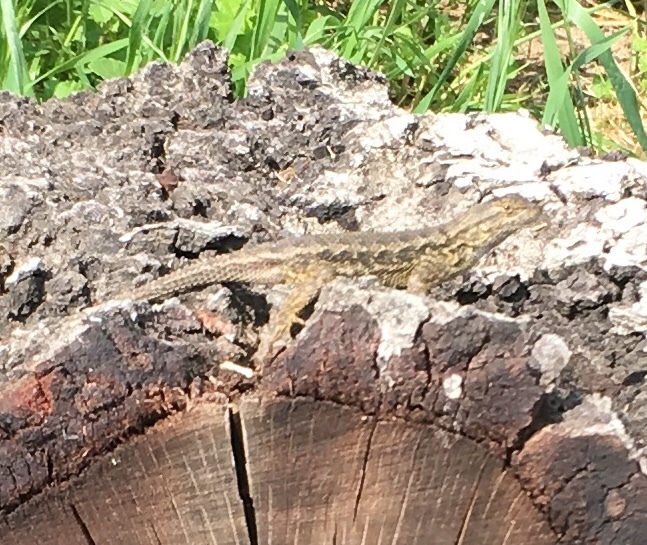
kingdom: Animalia
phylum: Chordata
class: Squamata
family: Phrynosomatidae
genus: Sceloporus
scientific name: Sceloporus occidentalis
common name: Western fence lizard
